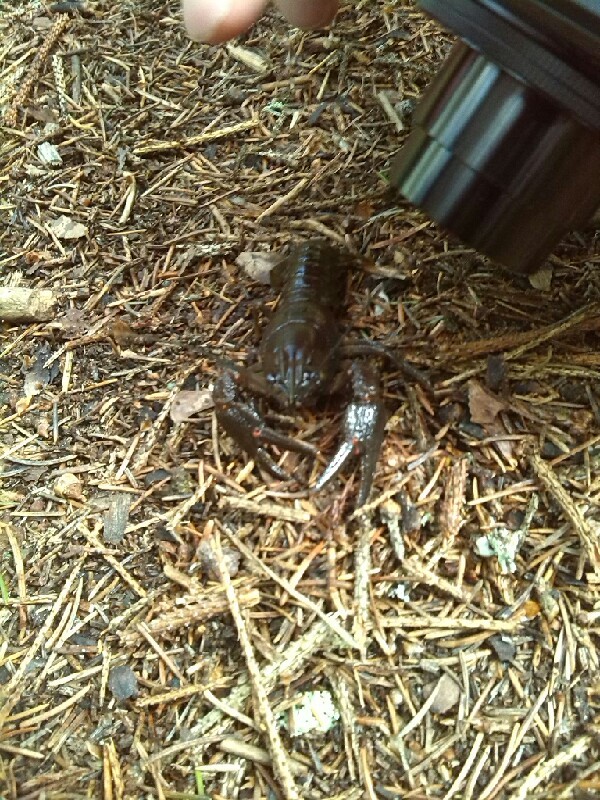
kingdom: Animalia
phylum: Arthropoda
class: Malacostraca
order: Decapoda
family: Astacidae
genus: Astacus
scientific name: Astacus astacus
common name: Noble crayfish
